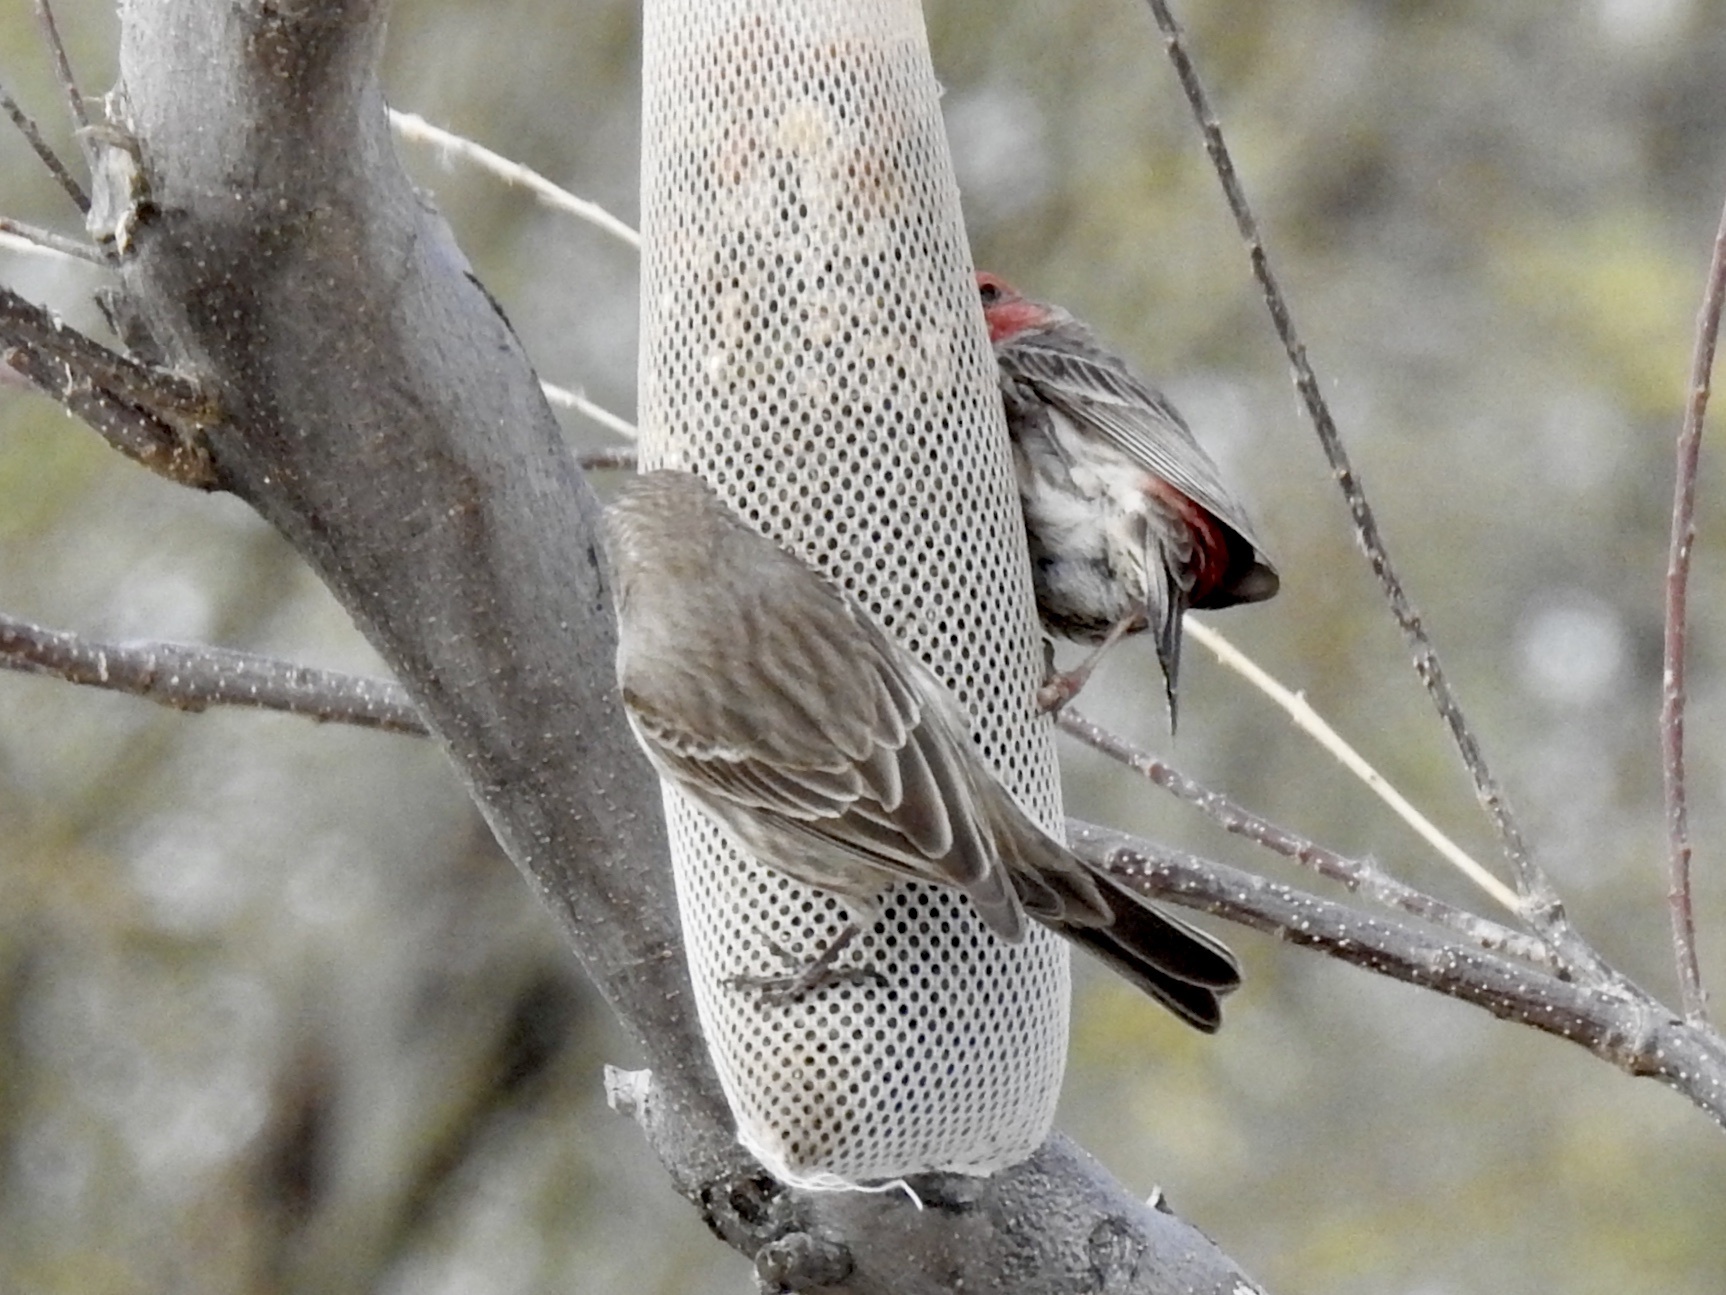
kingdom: Animalia
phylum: Chordata
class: Aves
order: Passeriformes
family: Fringillidae
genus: Haemorhous
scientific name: Haemorhous mexicanus
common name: House finch
